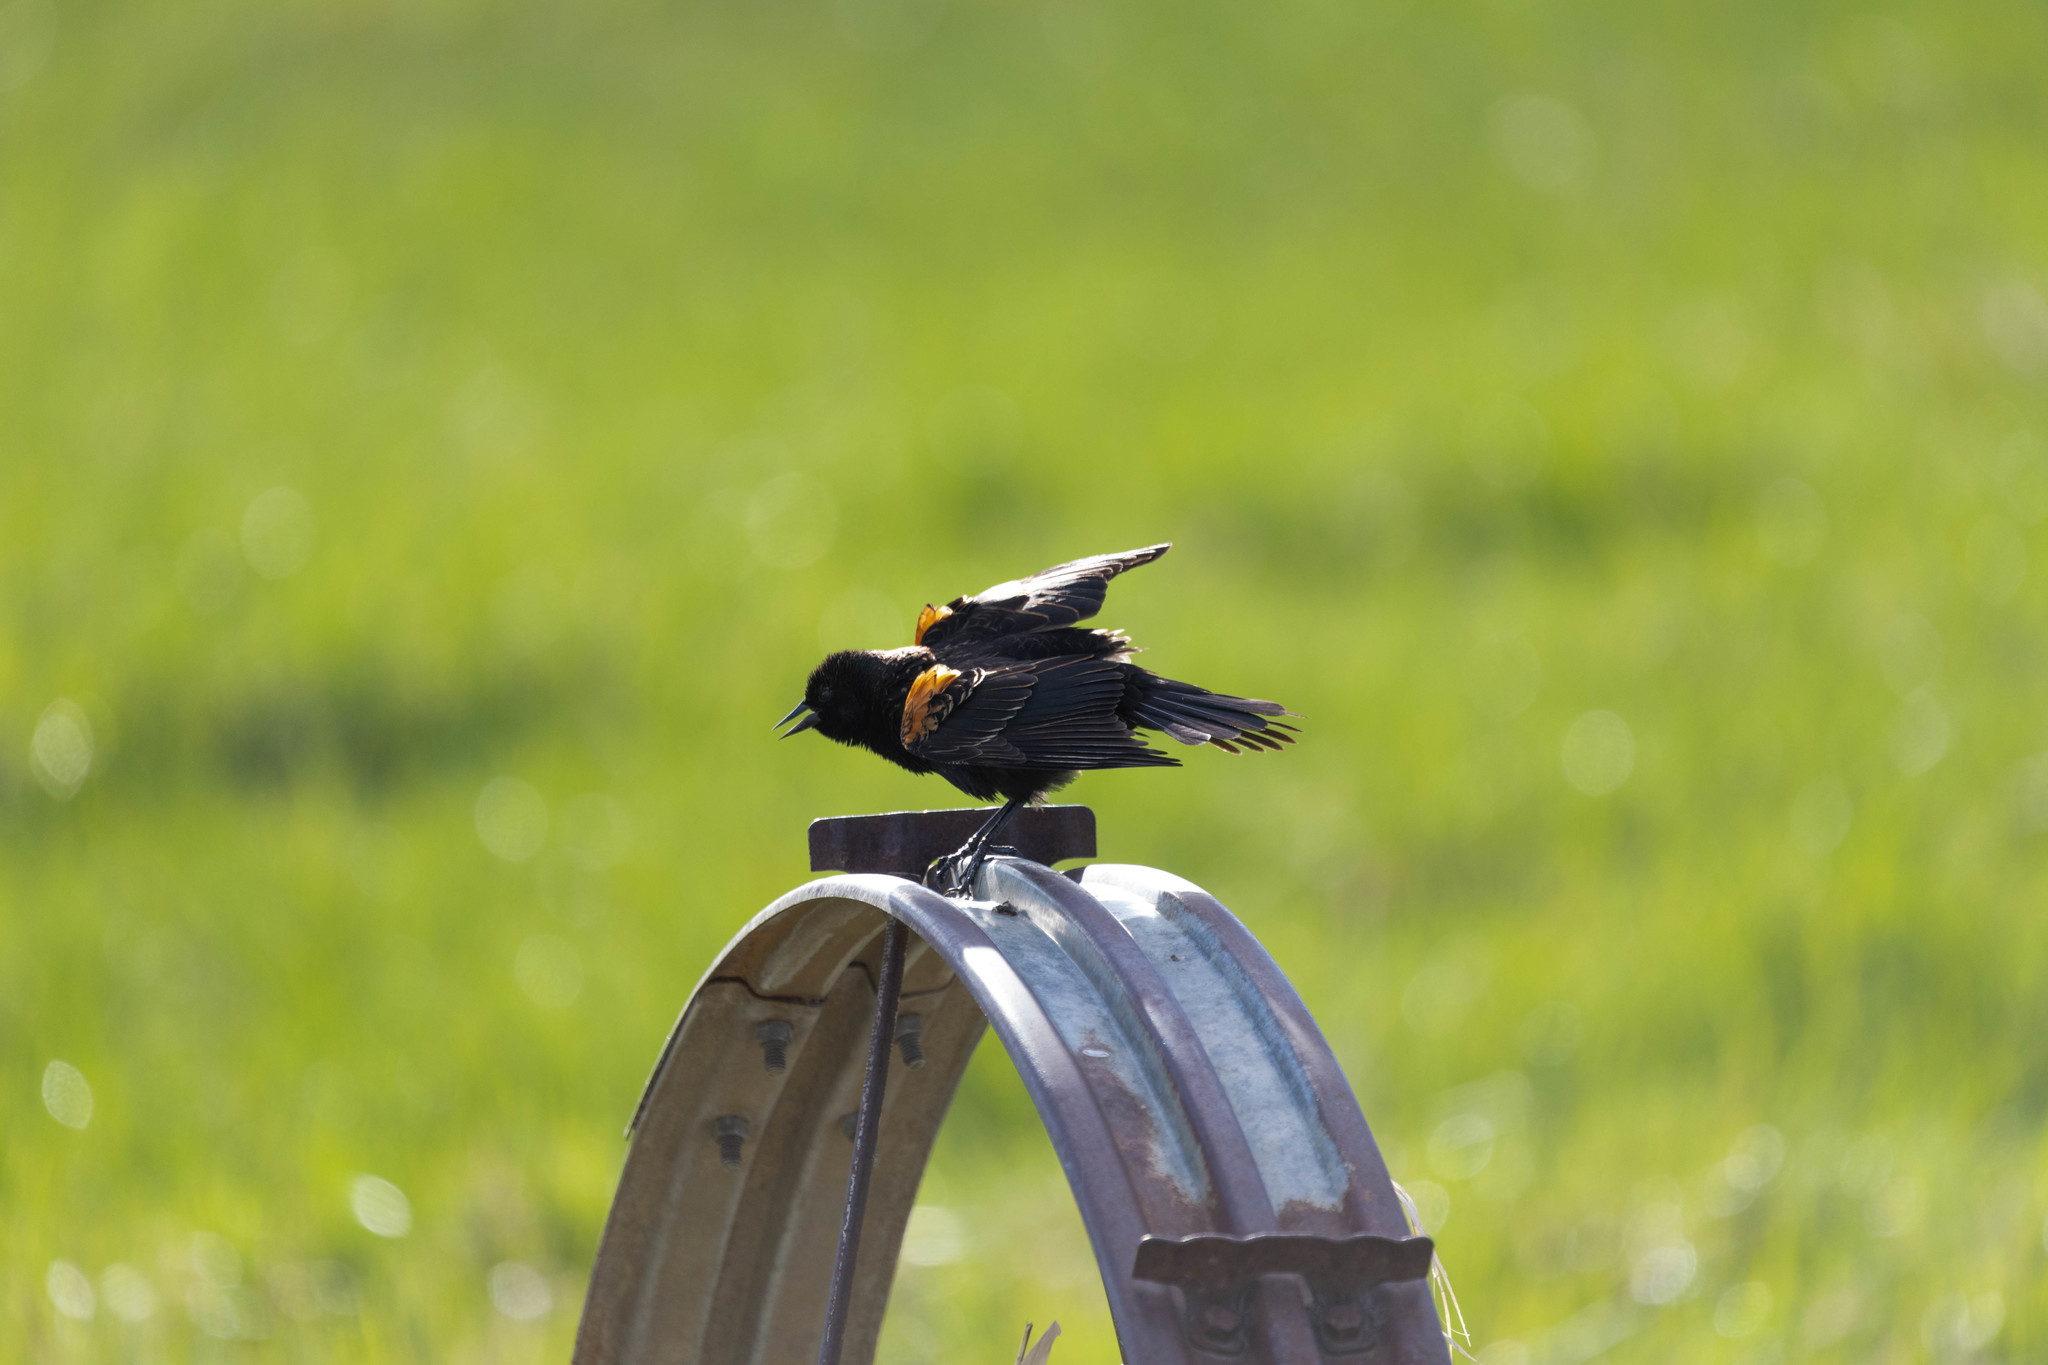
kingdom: Animalia
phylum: Chordata
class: Aves
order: Passeriformes
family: Icteridae
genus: Agelaius
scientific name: Agelaius phoeniceus
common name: Red-winged blackbird
